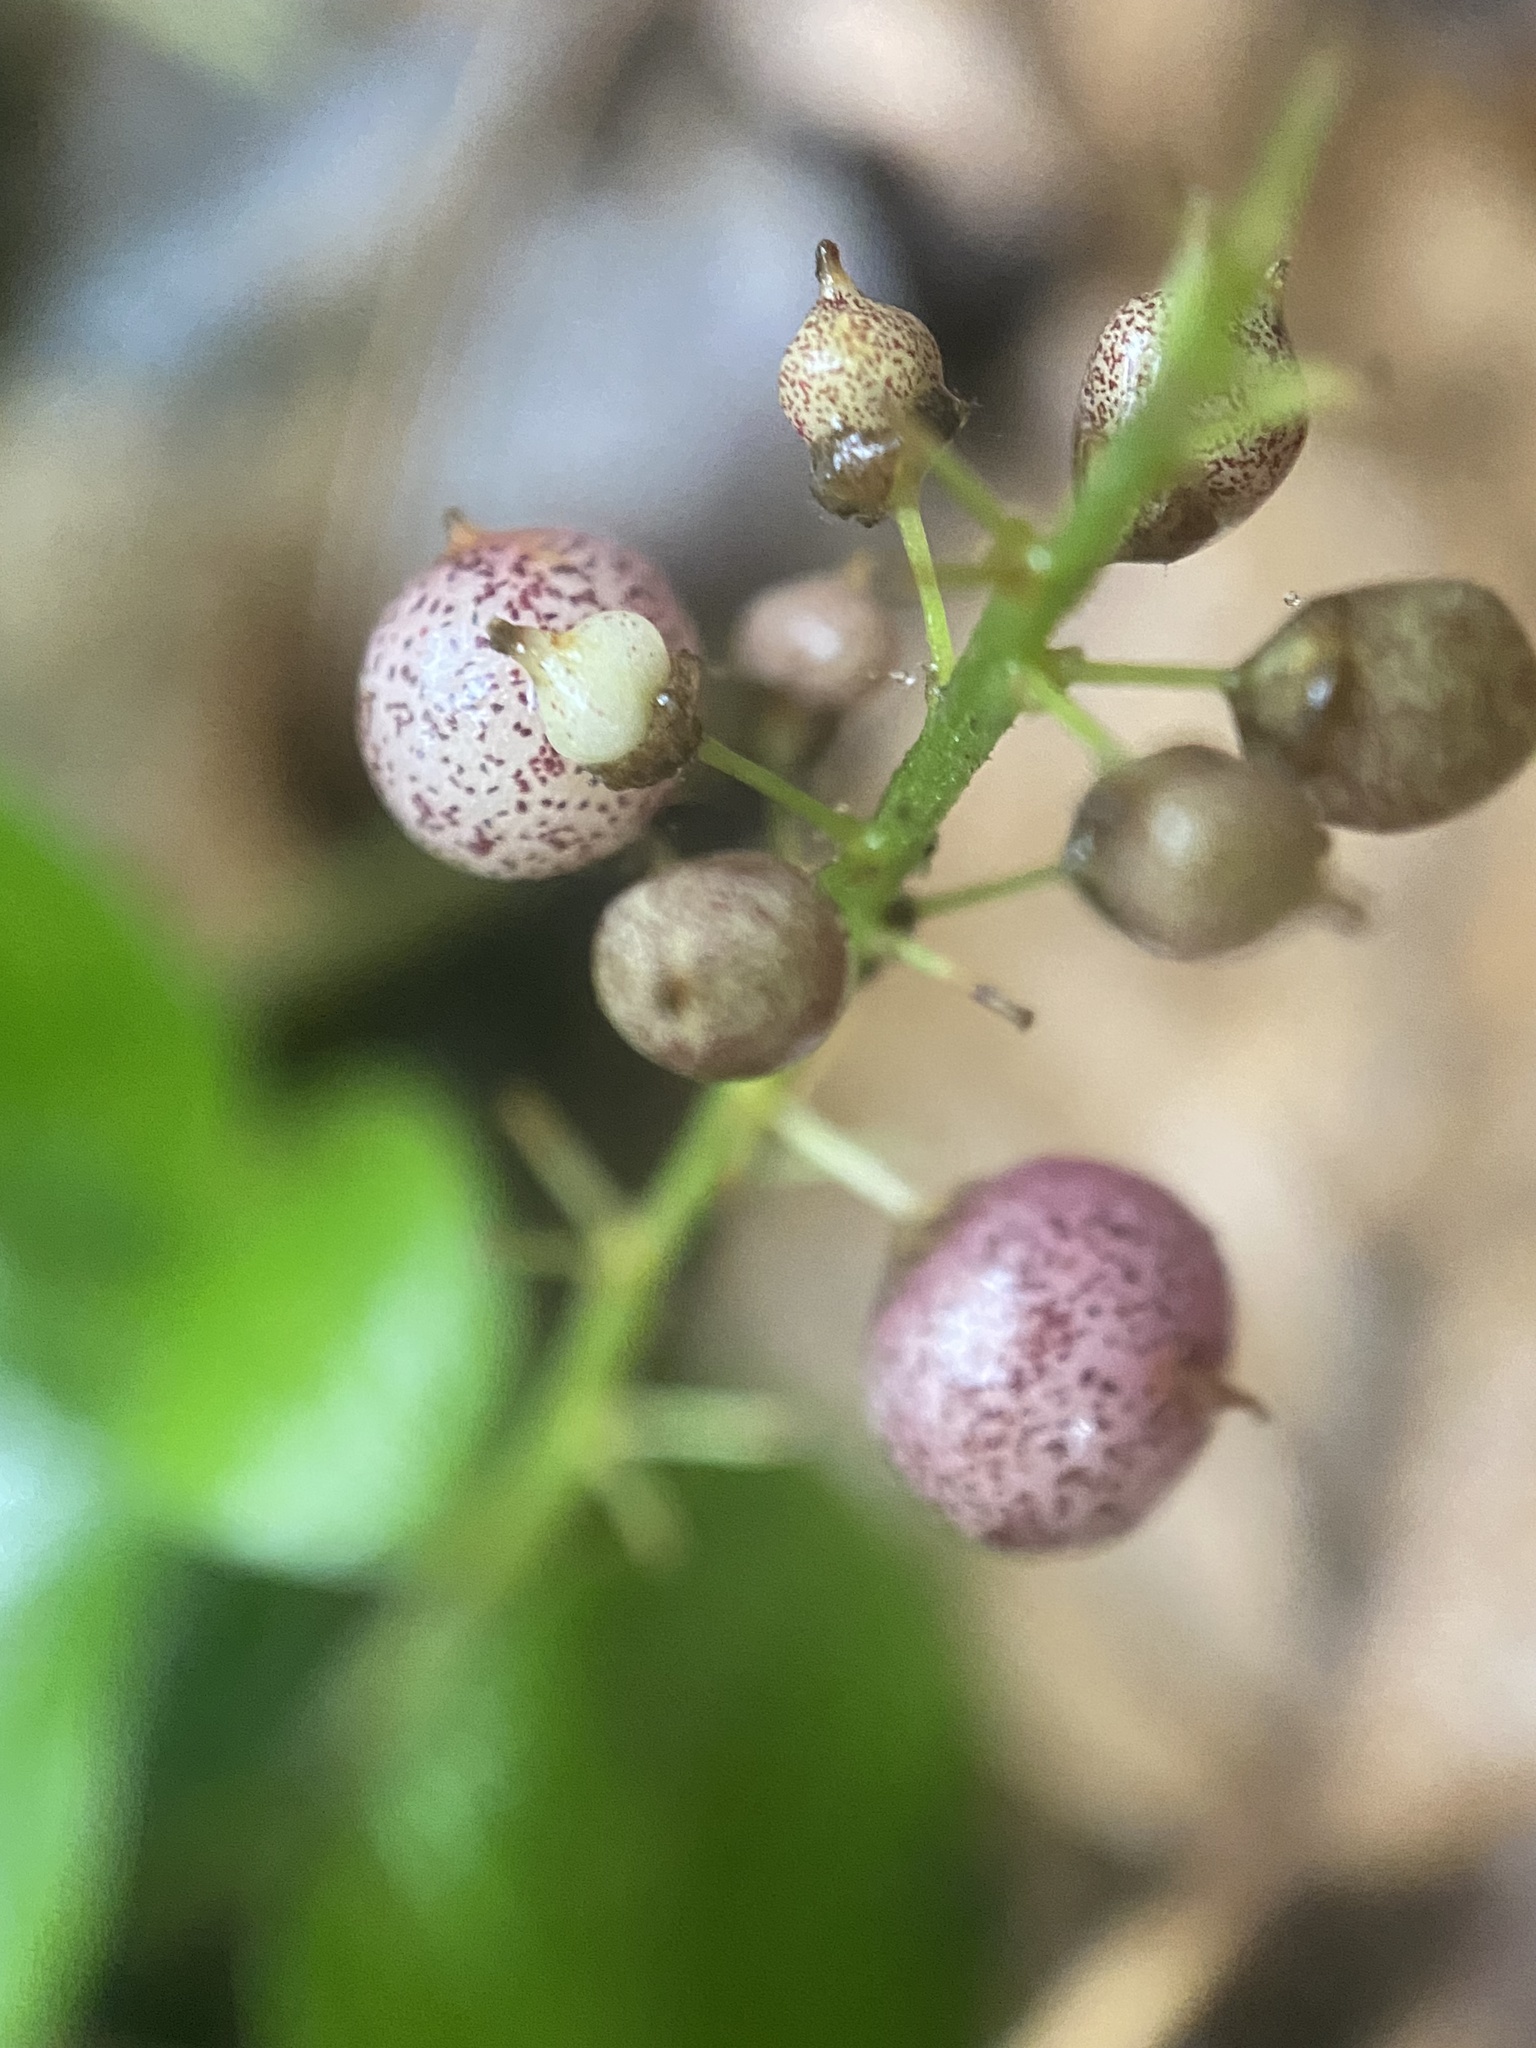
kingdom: Plantae
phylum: Tracheophyta
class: Liliopsida
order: Asparagales
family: Asparagaceae
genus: Maianthemum
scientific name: Maianthemum canadense
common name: False lily-of-the-valley
